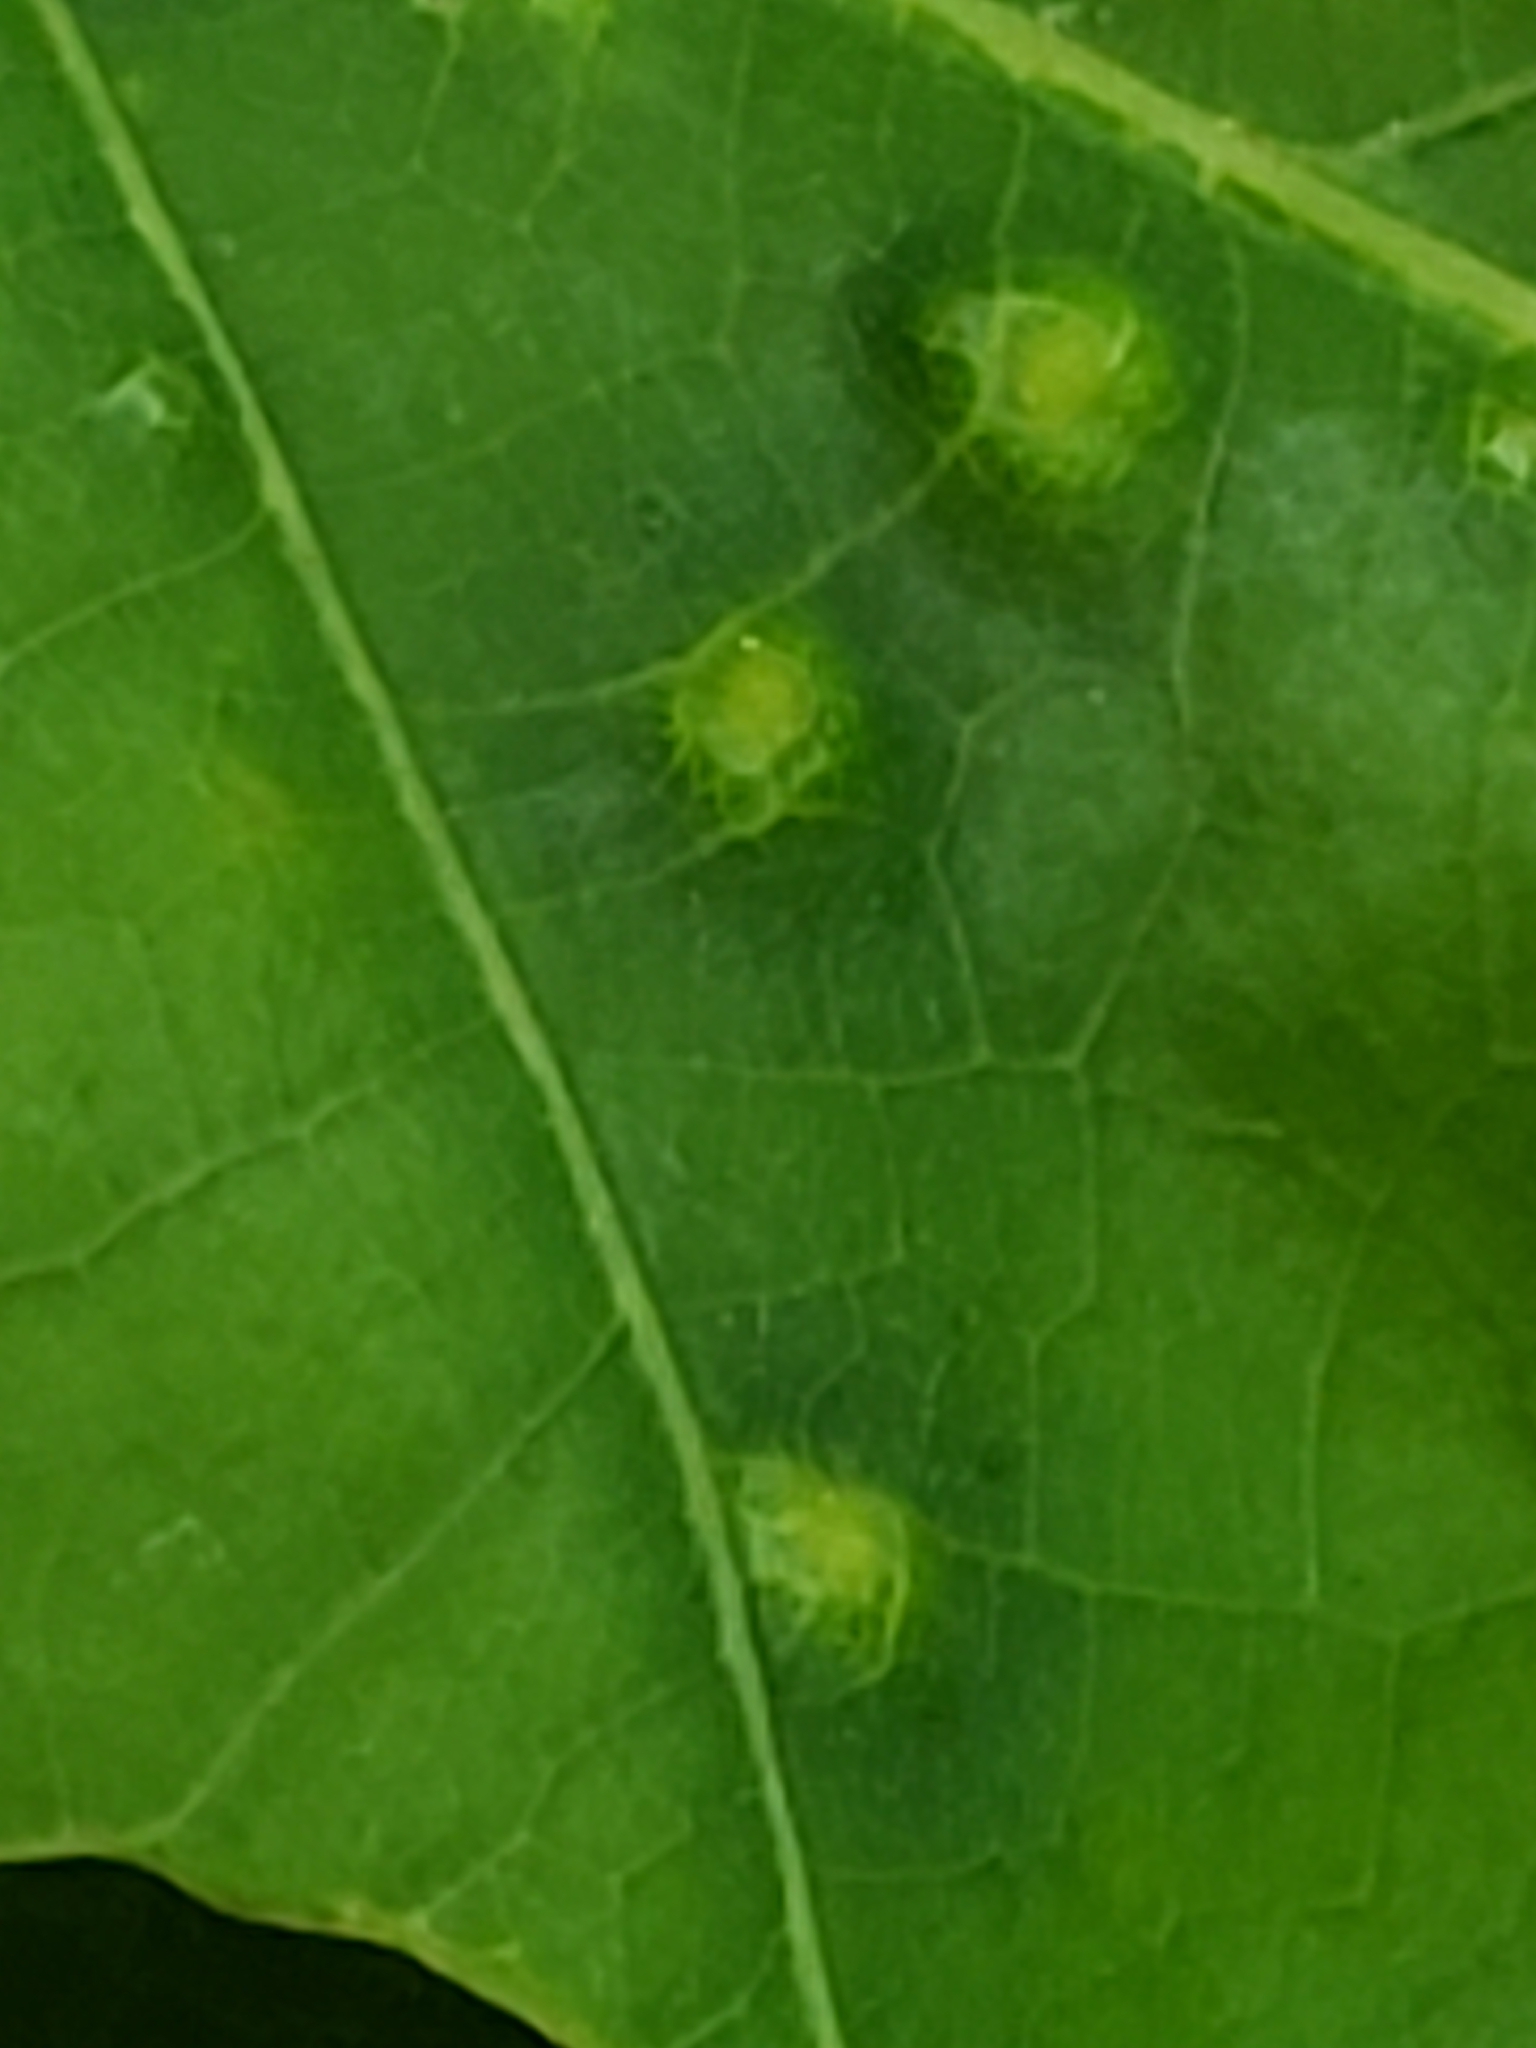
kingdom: Animalia
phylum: Arthropoda
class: Insecta
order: Hymenoptera
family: Cynipidae
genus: Neuroterus
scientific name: Neuroterus saltarius
